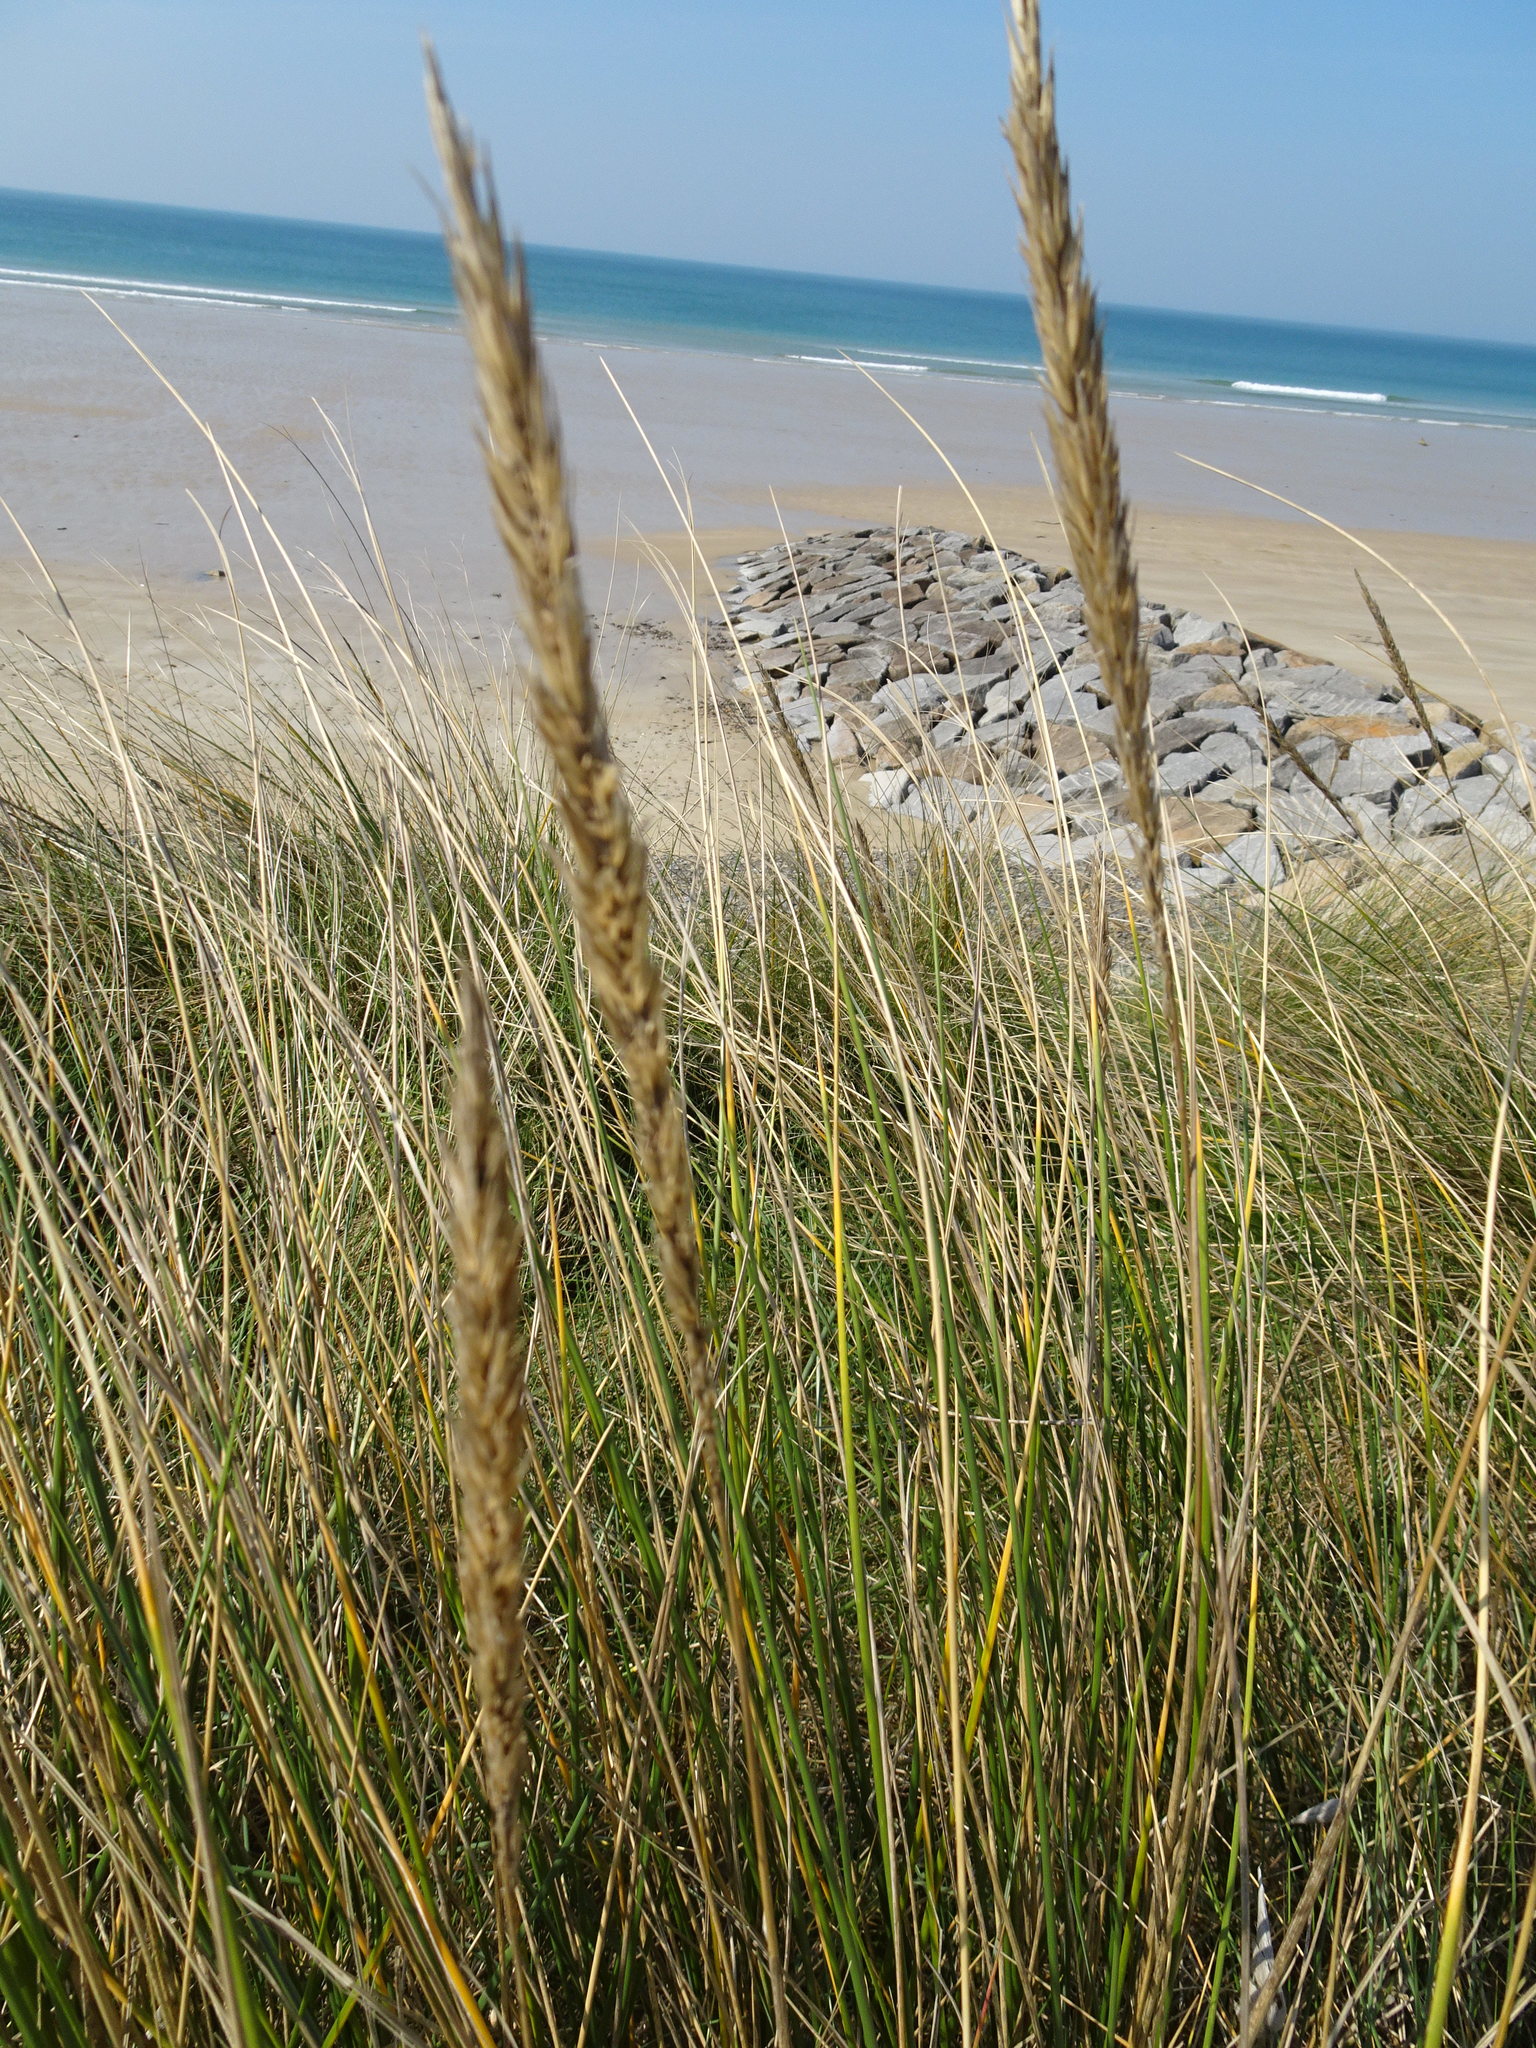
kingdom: Plantae
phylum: Tracheophyta
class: Liliopsida
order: Poales
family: Poaceae
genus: Calamagrostis
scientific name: Calamagrostis arenaria
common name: European beachgrass
